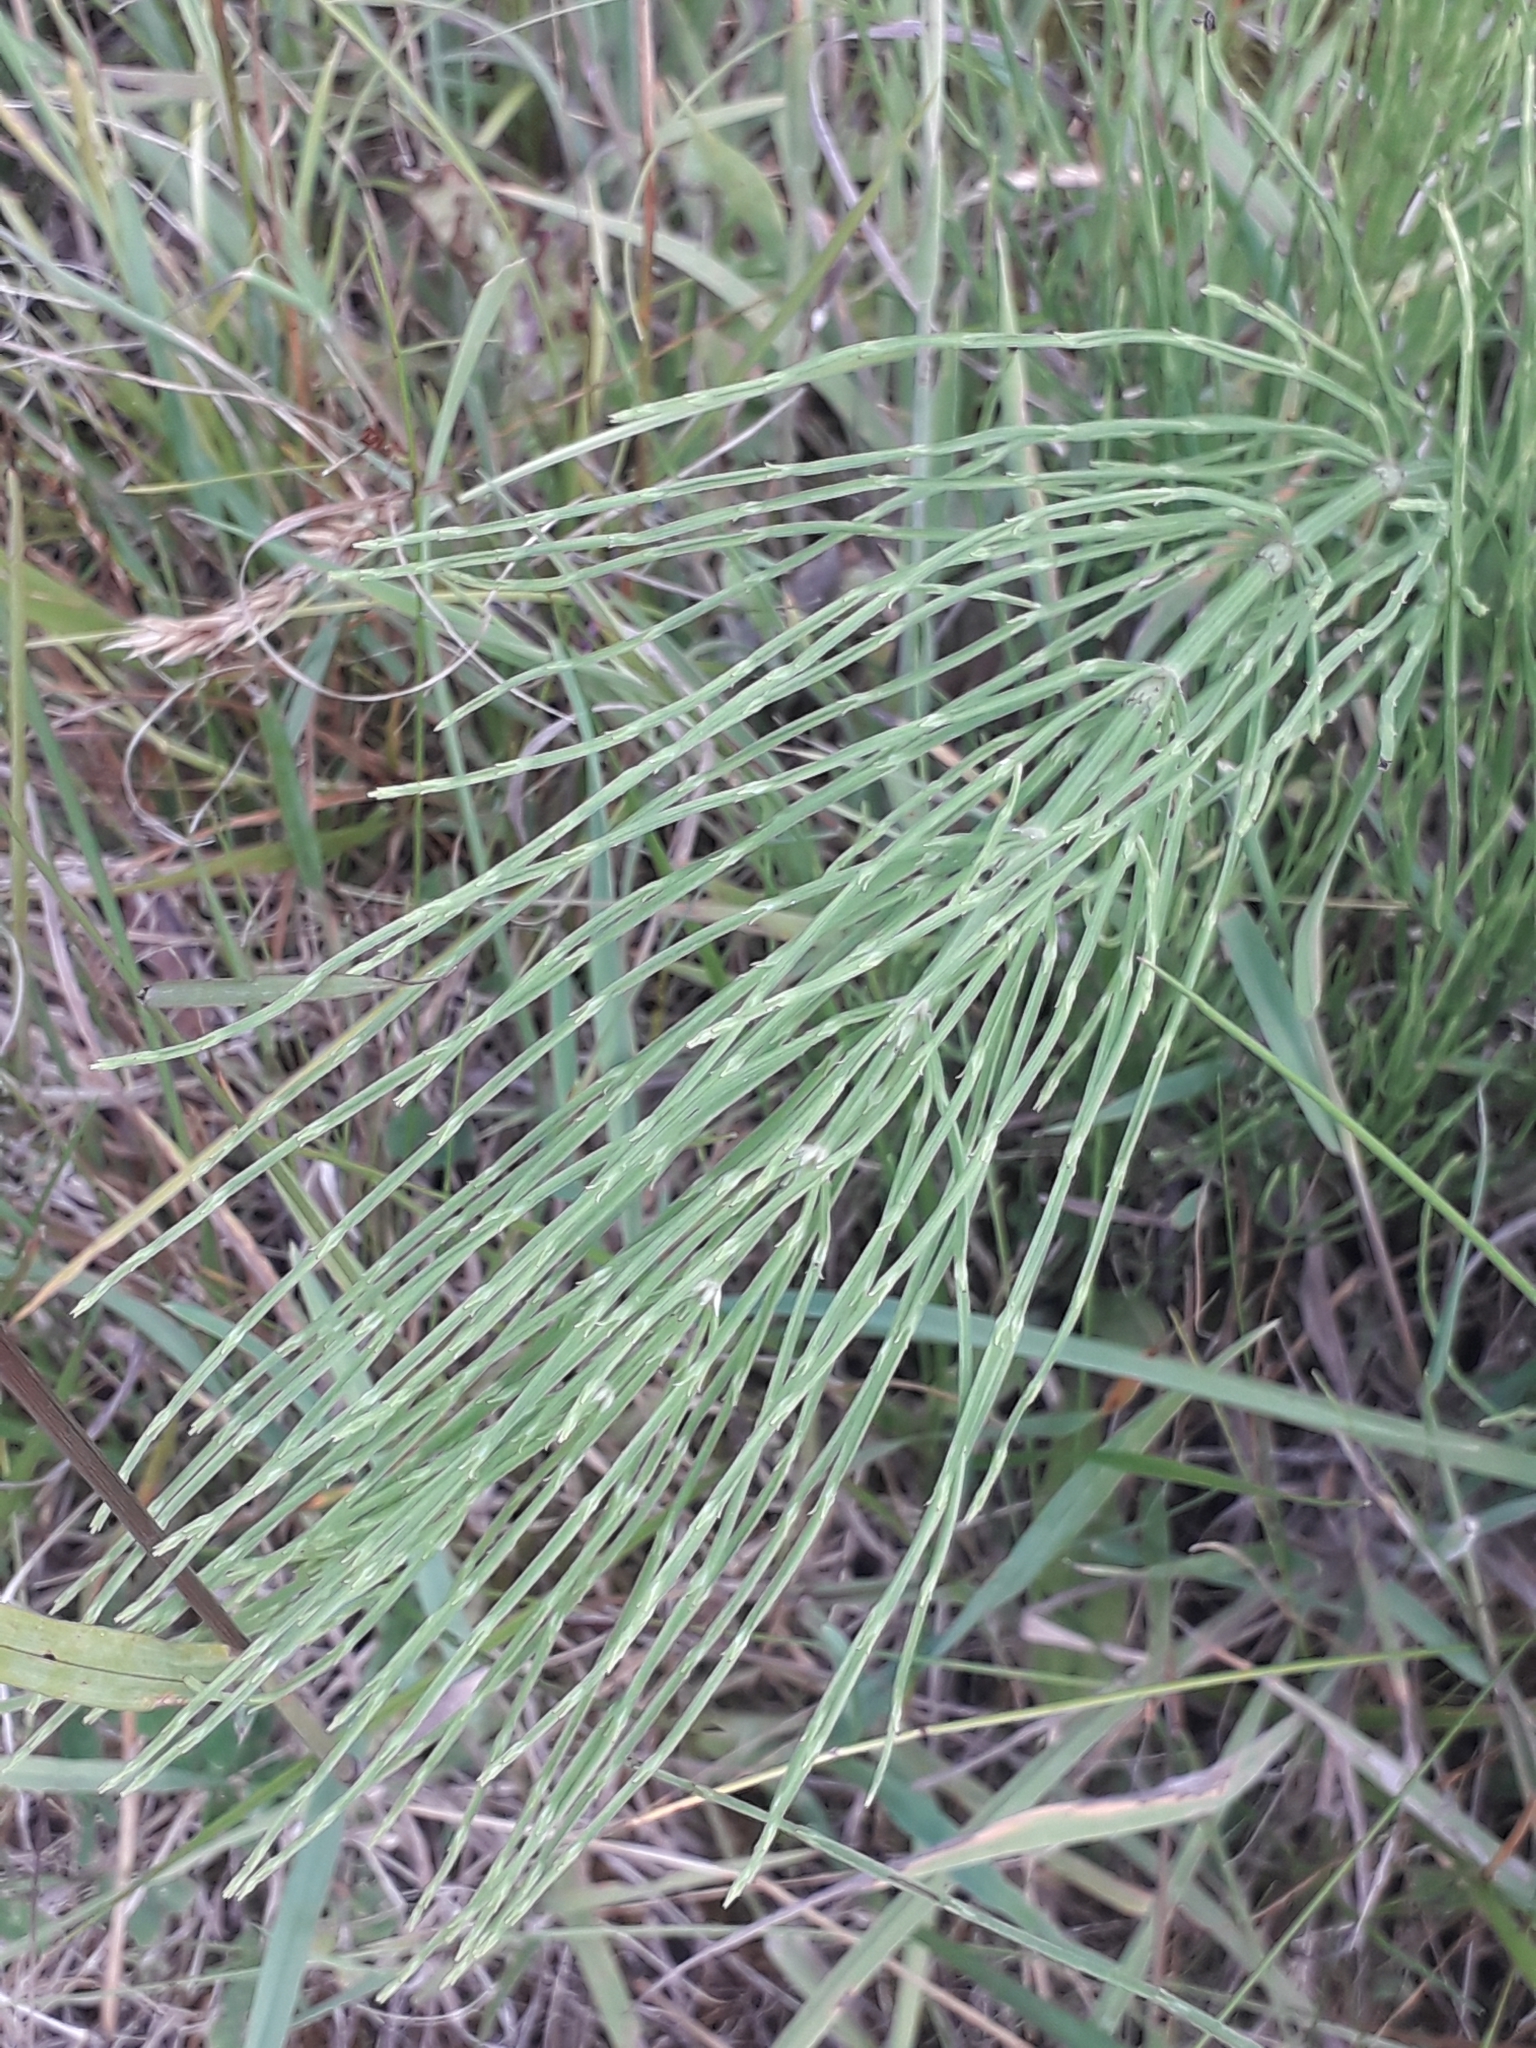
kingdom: Plantae
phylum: Tracheophyta
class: Polypodiopsida
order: Equisetales
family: Equisetaceae
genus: Equisetum
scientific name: Equisetum arvense
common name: Field horsetail
